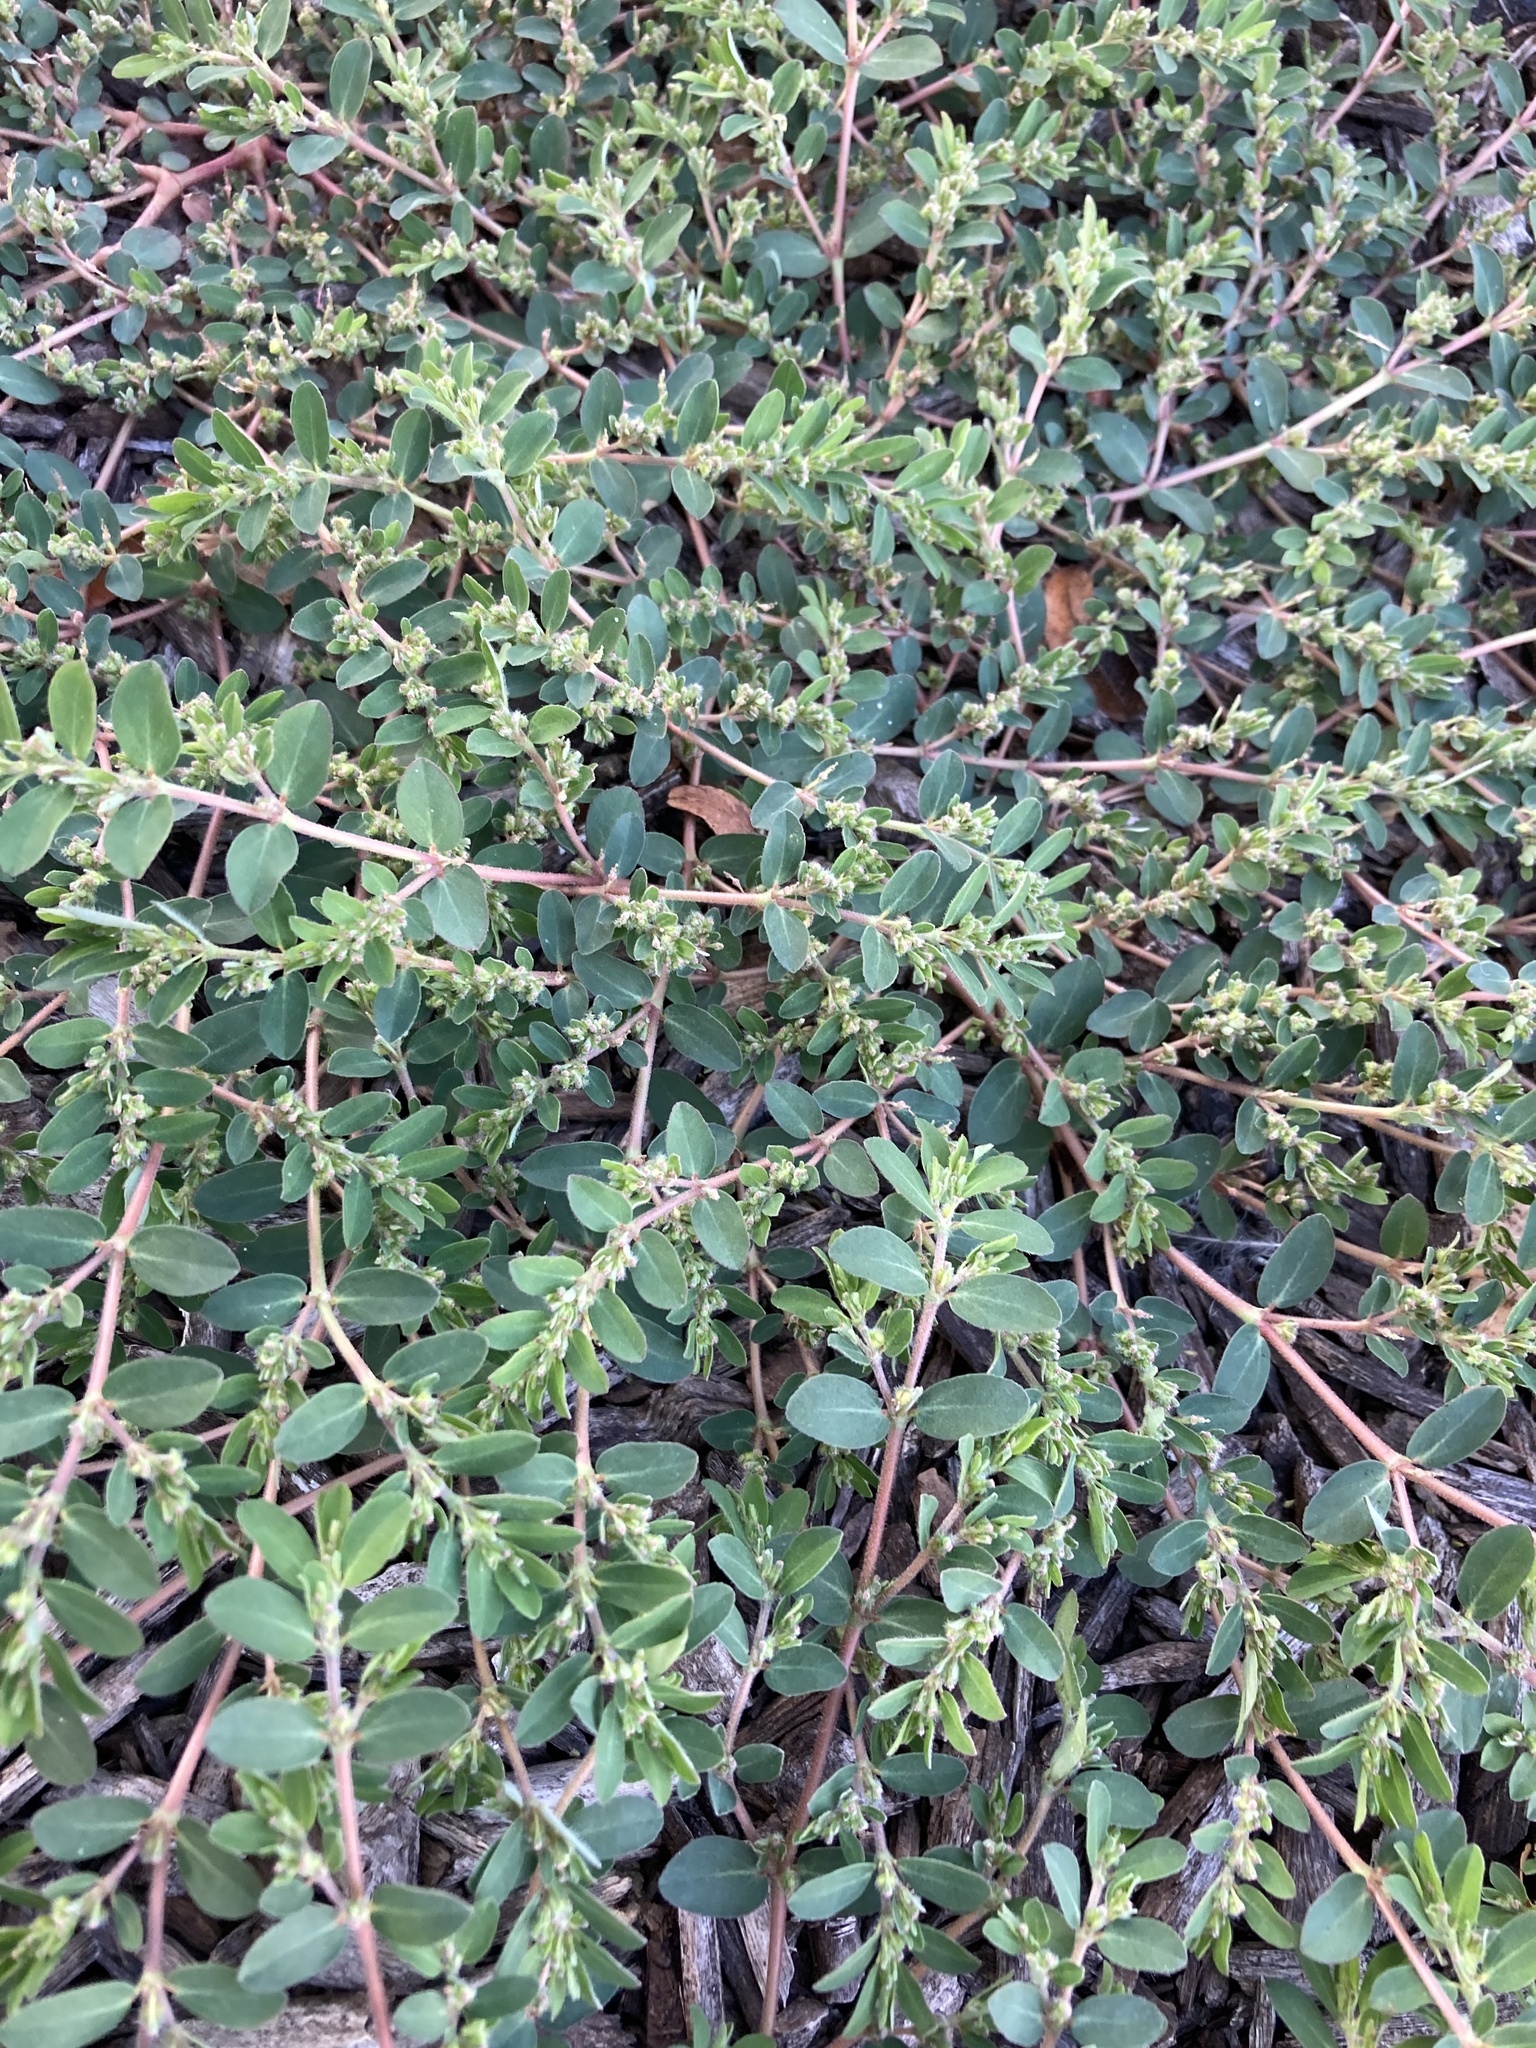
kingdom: Plantae
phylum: Tracheophyta
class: Magnoliopsida
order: Malpighiales
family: Euphorbiaceae
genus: Euphorbia
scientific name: Euphorbia prostrata
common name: Prostrate sandmat
